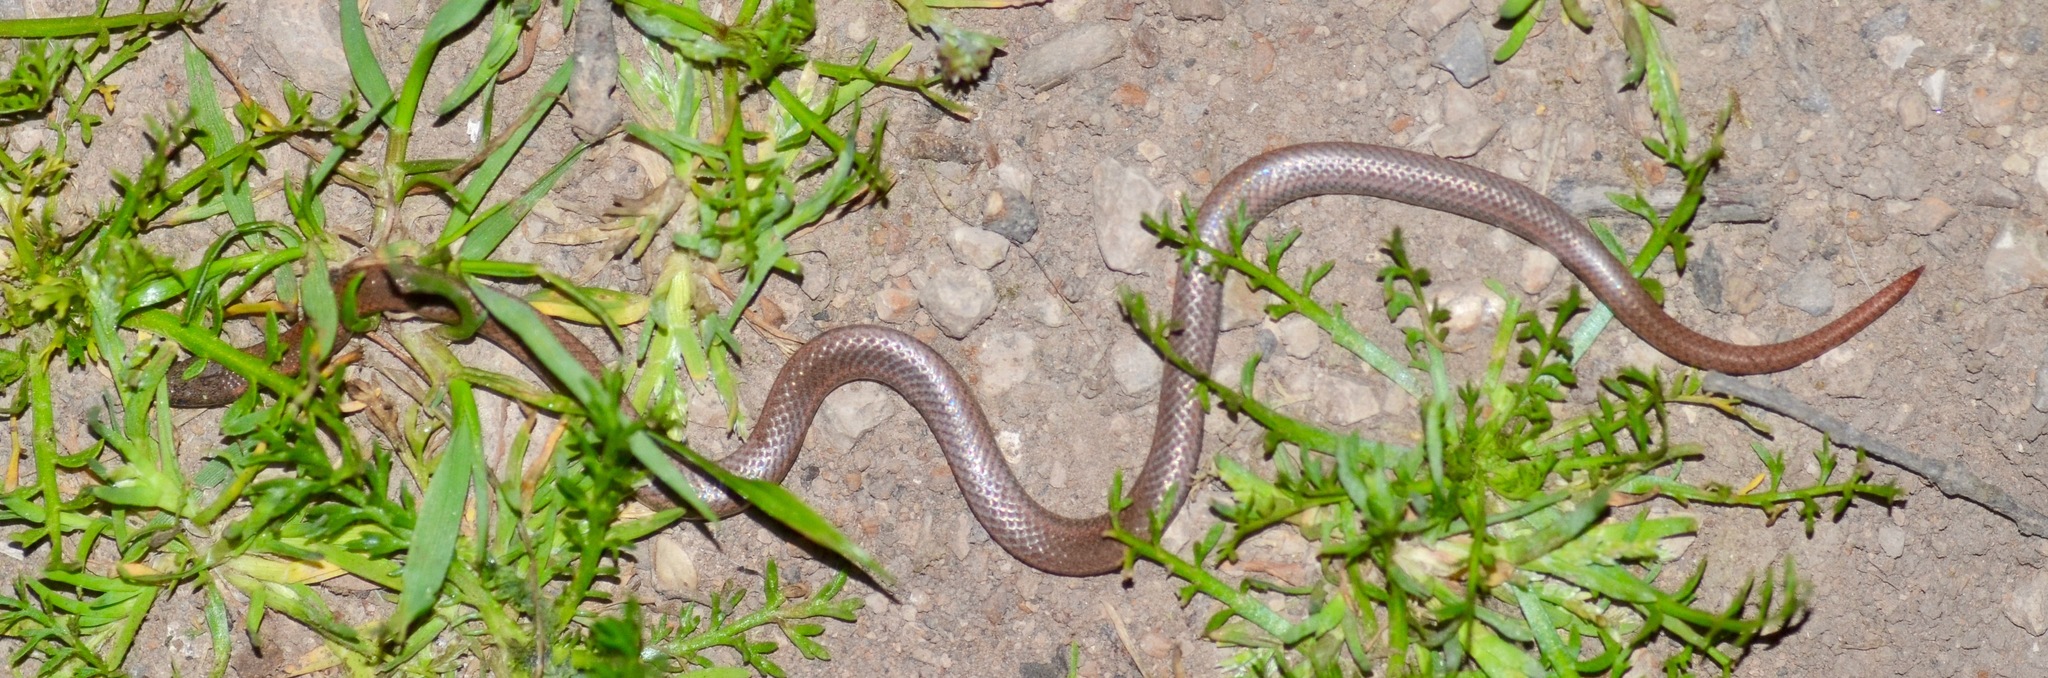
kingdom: Animalia
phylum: Chordata
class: Squamata
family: Colubridae
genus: Contia
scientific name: Contia tenuis
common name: Sharptail snake
